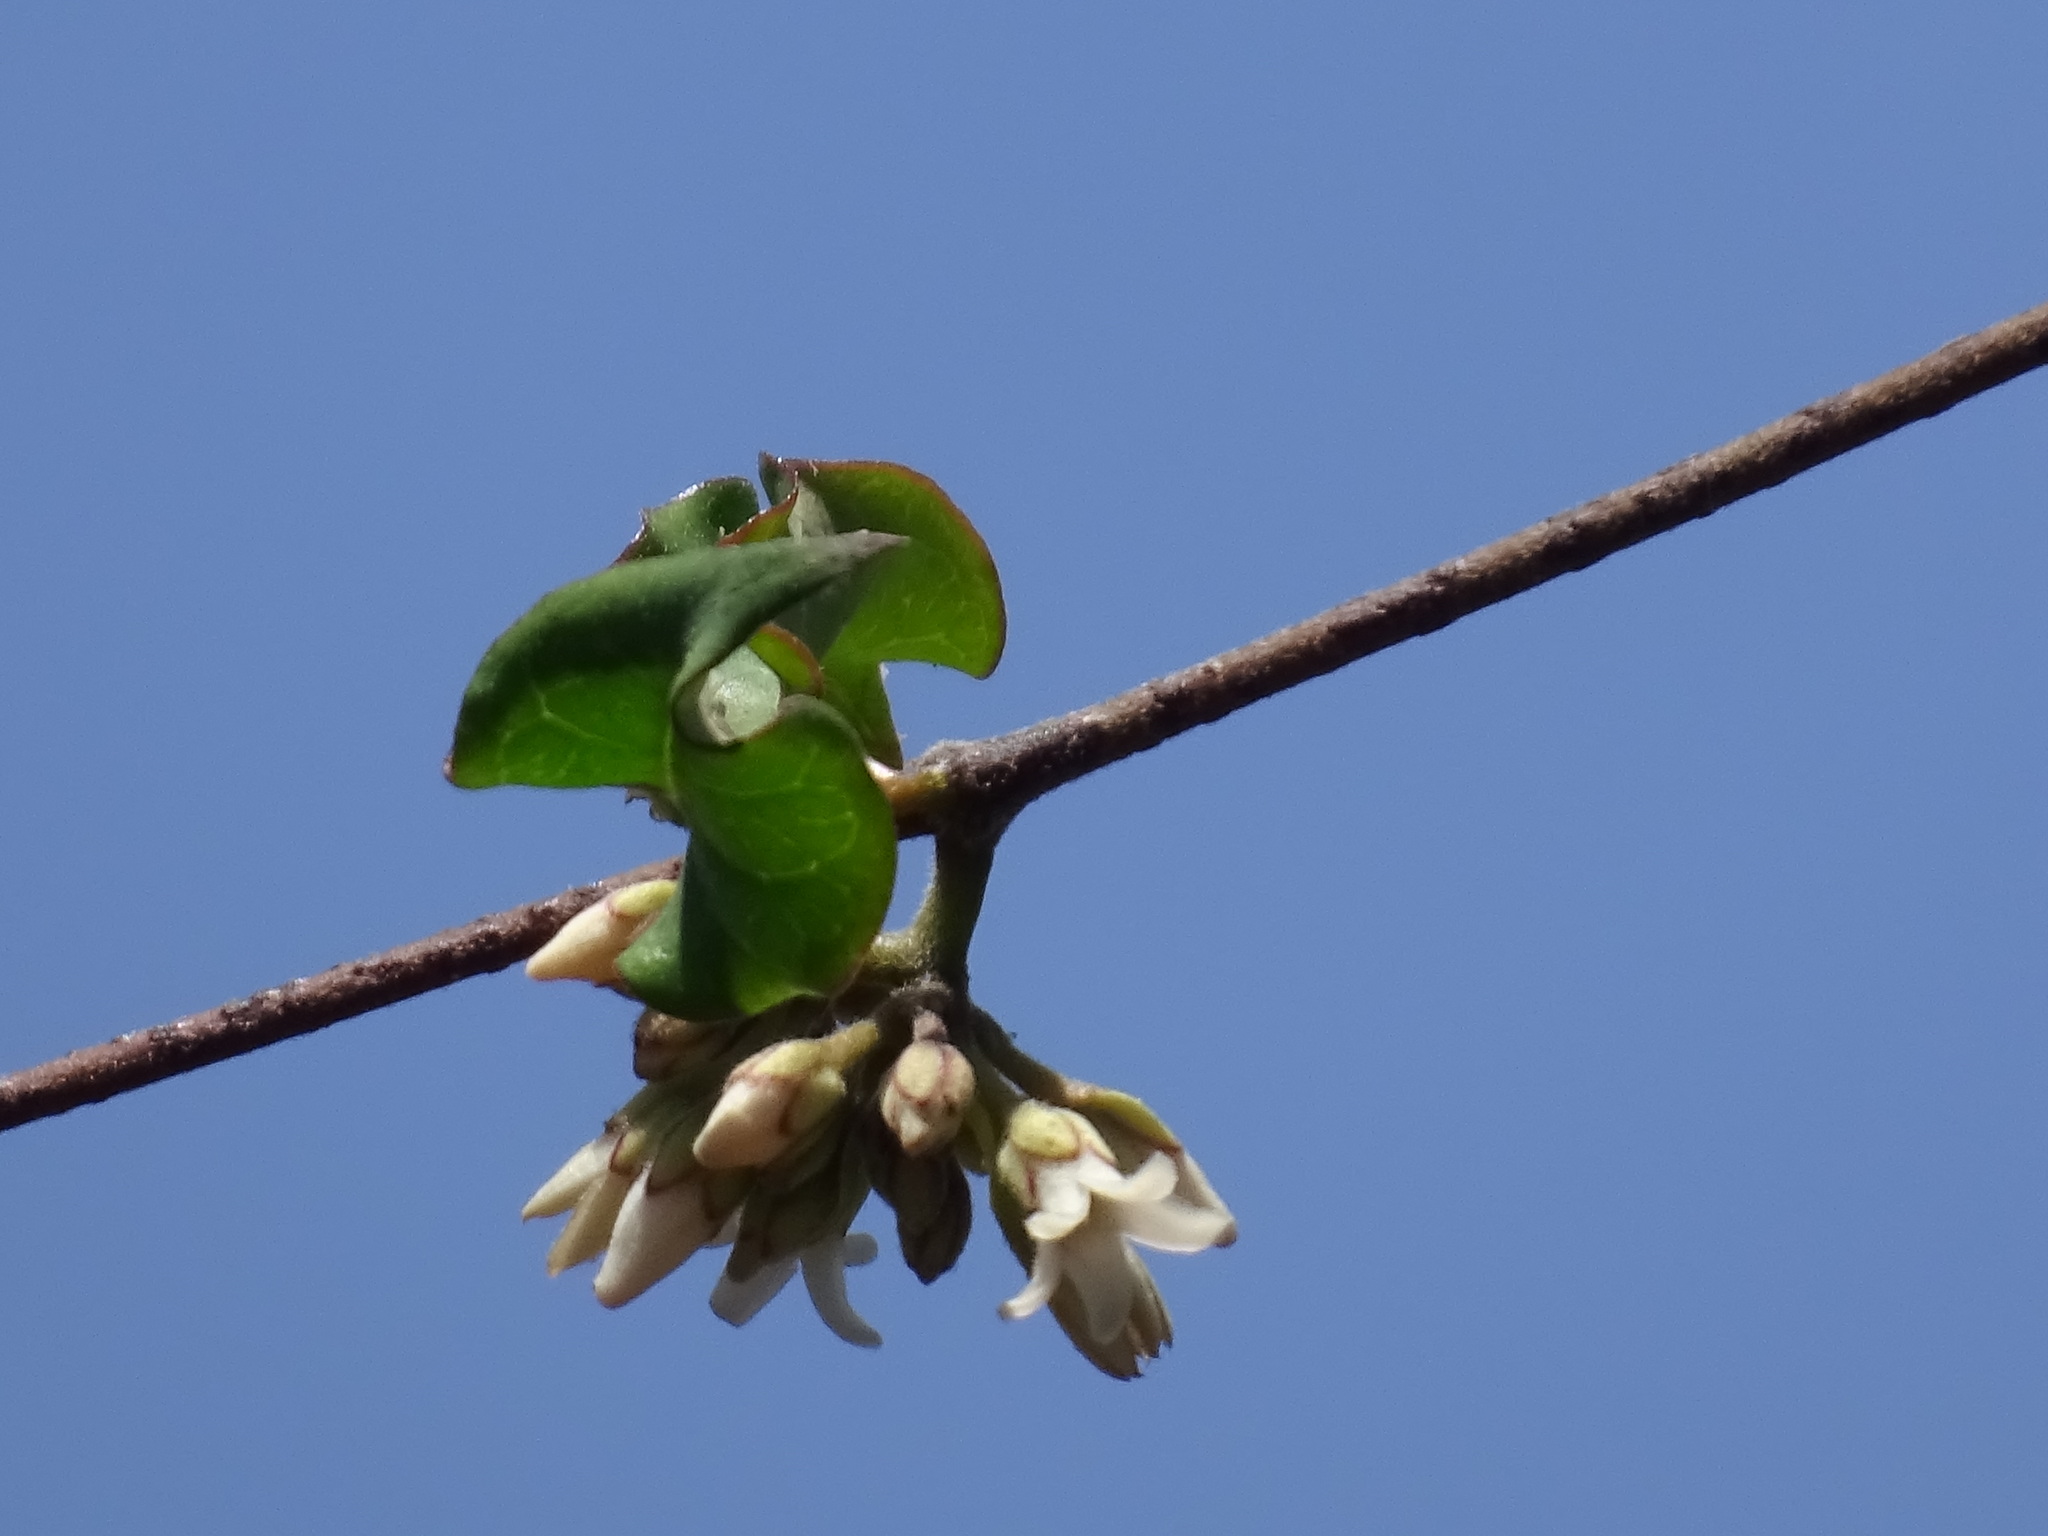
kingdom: Plantae
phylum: Tracheophyta
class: Magnoliopsida
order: Gentianales
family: Apocynaceae
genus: Ruehssia
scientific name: Ruehssia edulis
